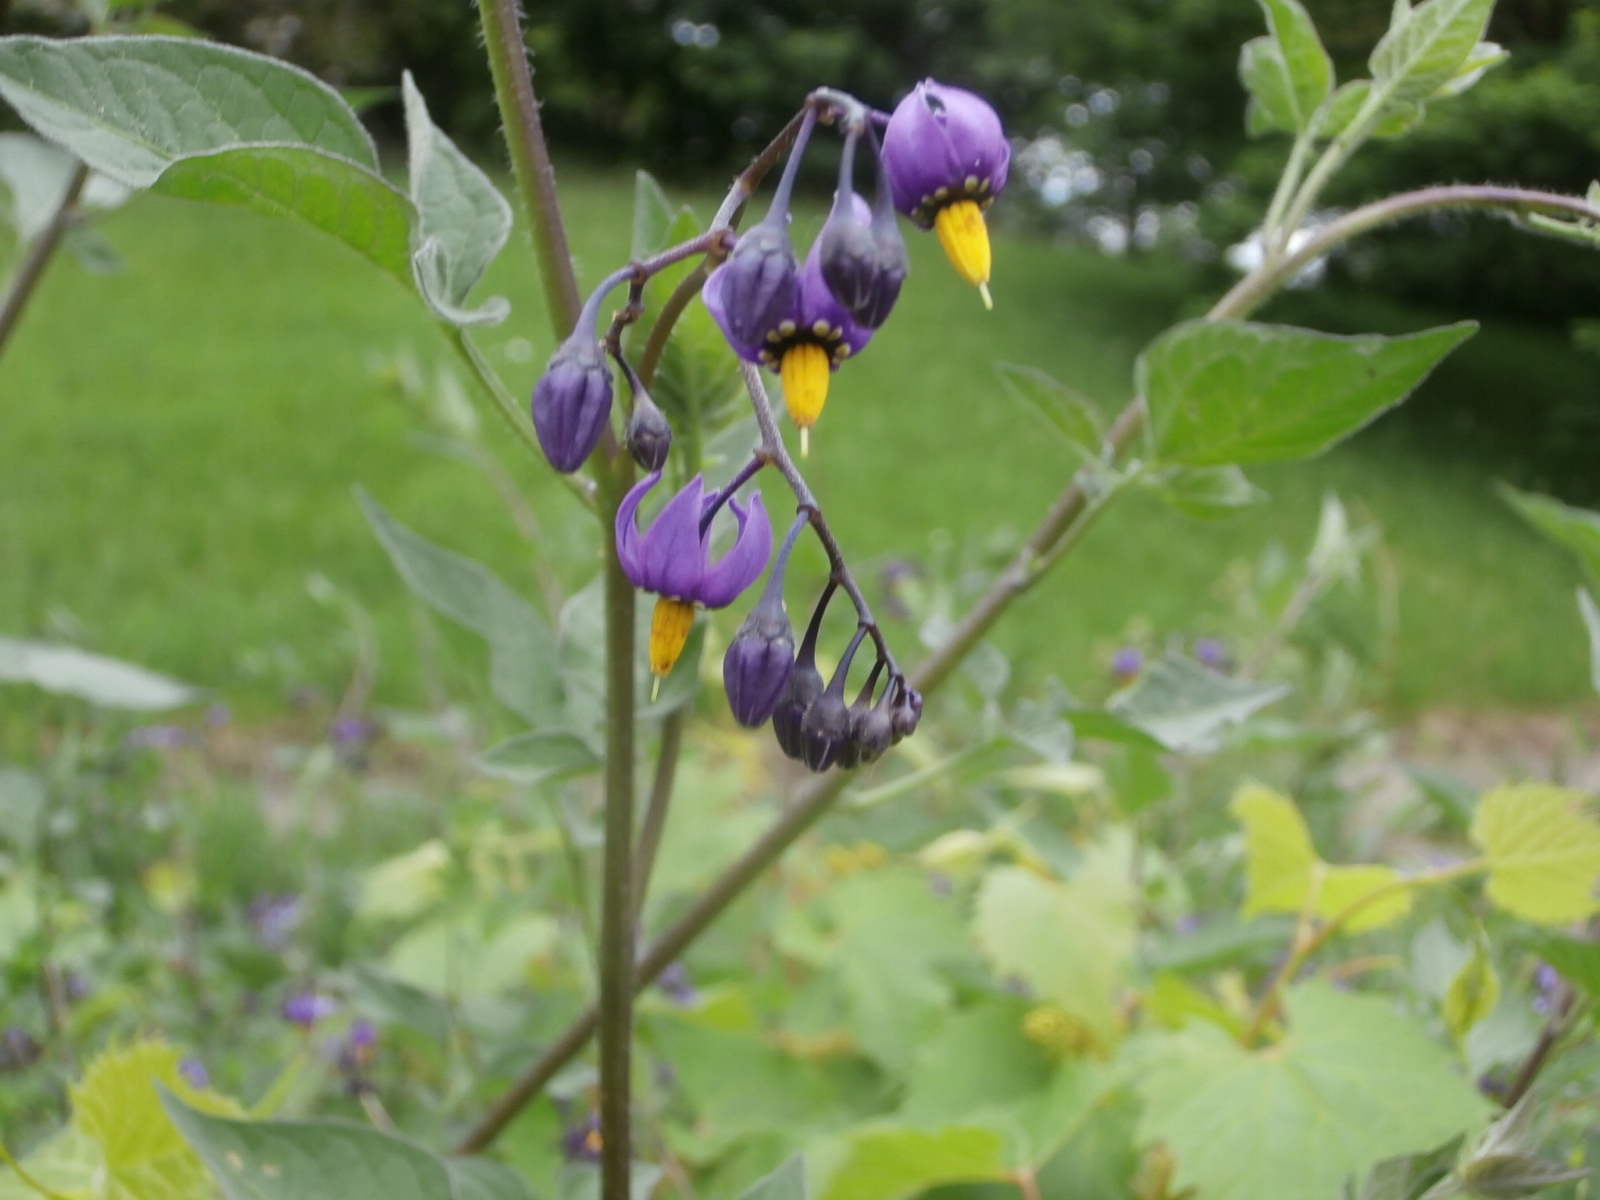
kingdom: Plantae
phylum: Tracheophyta
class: Magnoliopsida
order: Solanales
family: Solanaceae
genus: Solanum
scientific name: Solanum dulcamara
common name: Climbing nightshade
